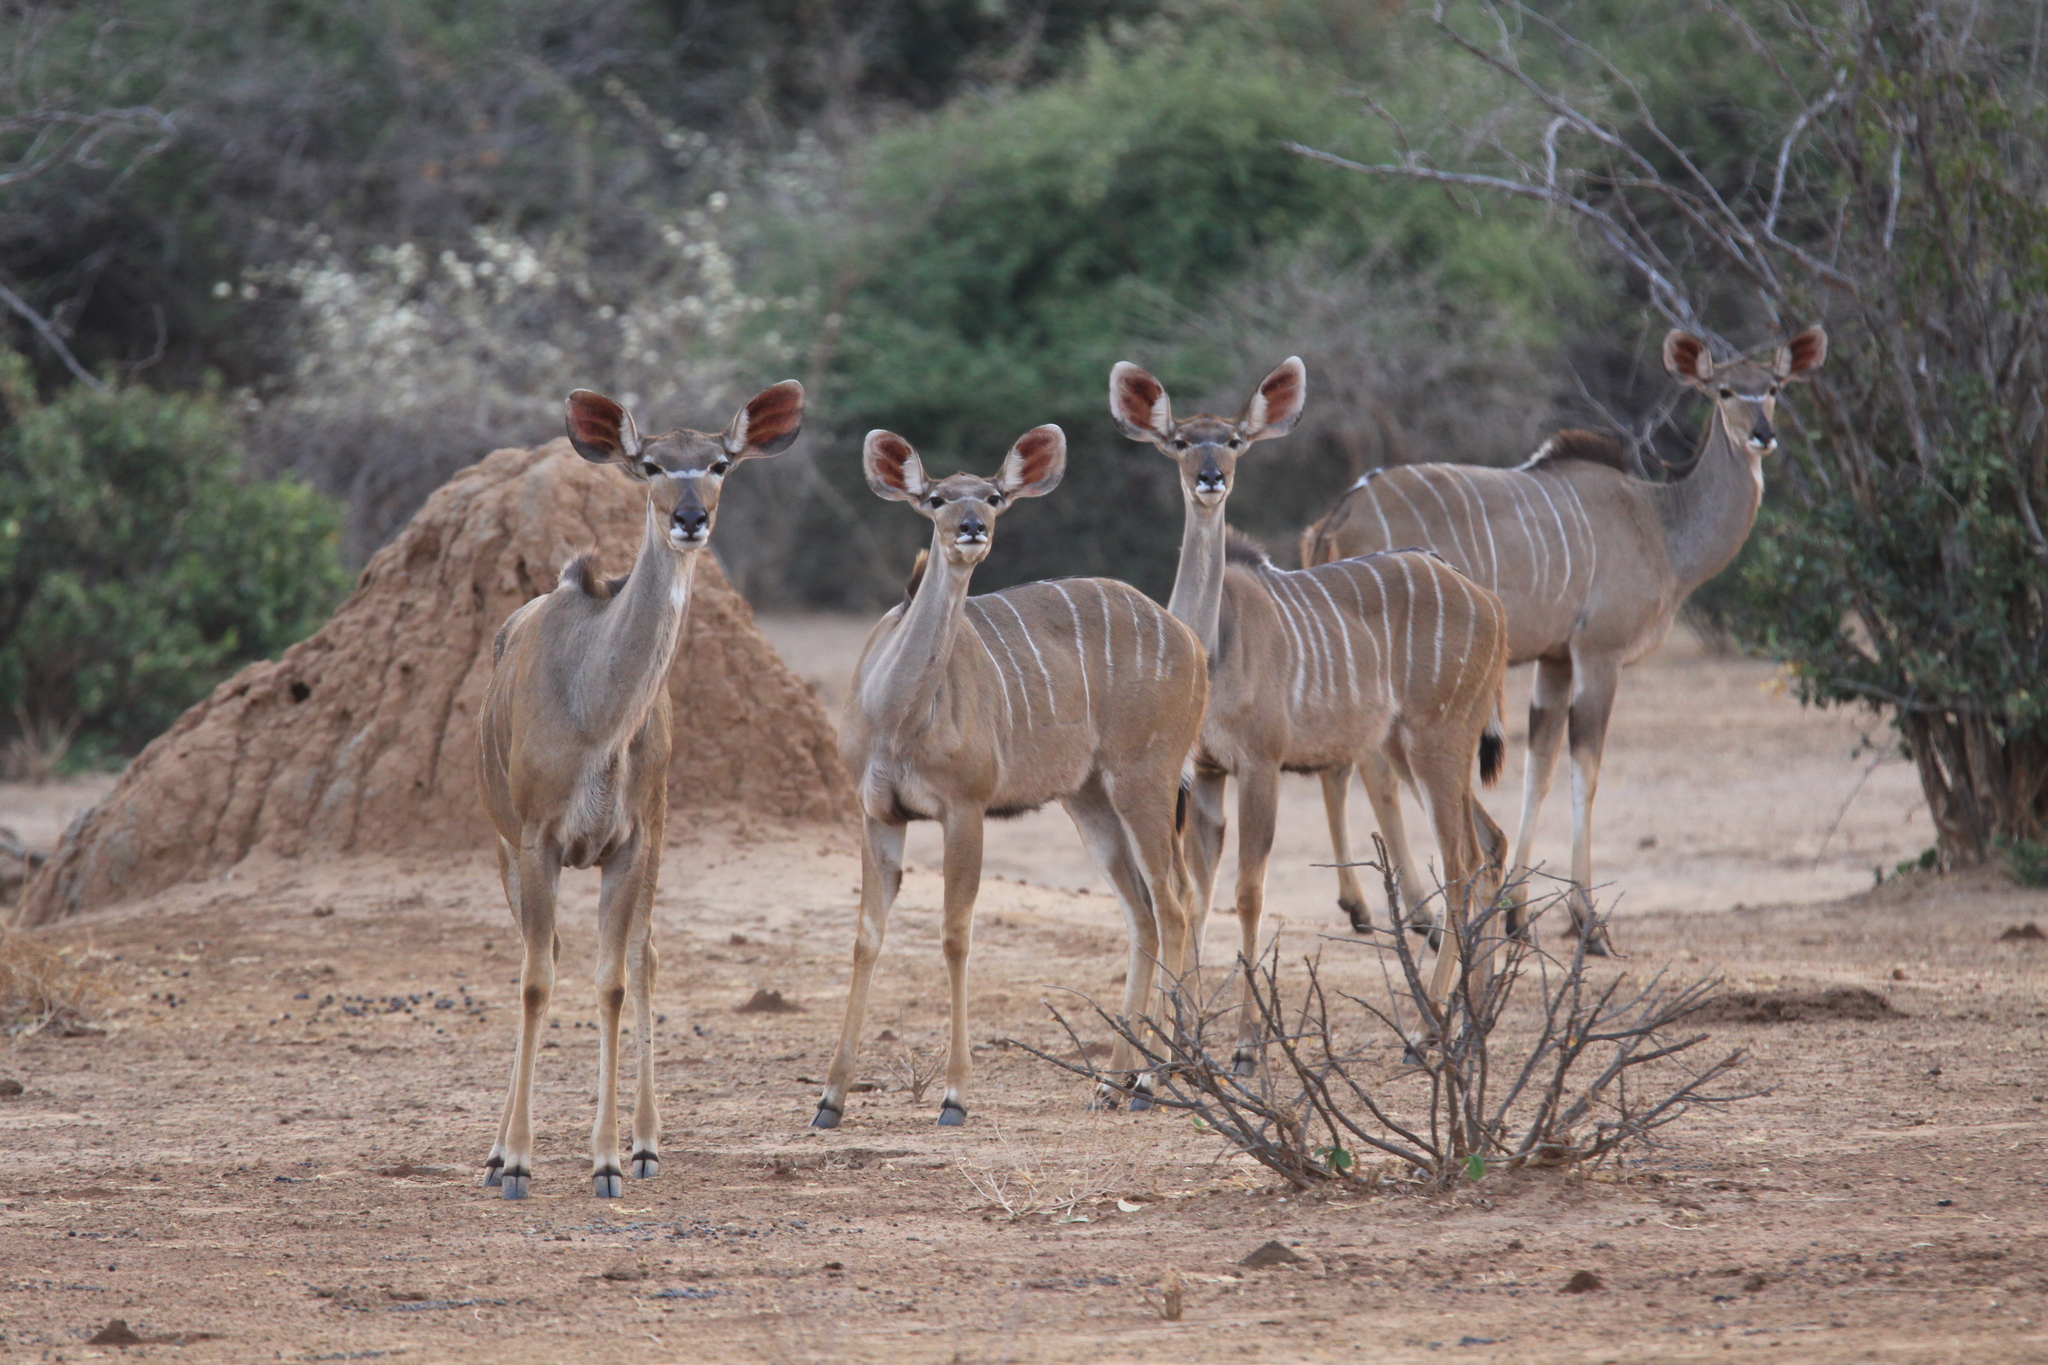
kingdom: Animalia
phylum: Chordata
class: Mammalia
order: Artiodactyla
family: Bovidae
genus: Tragelaphus
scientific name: Tragelaphus strepsiceros
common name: Greater kudu
